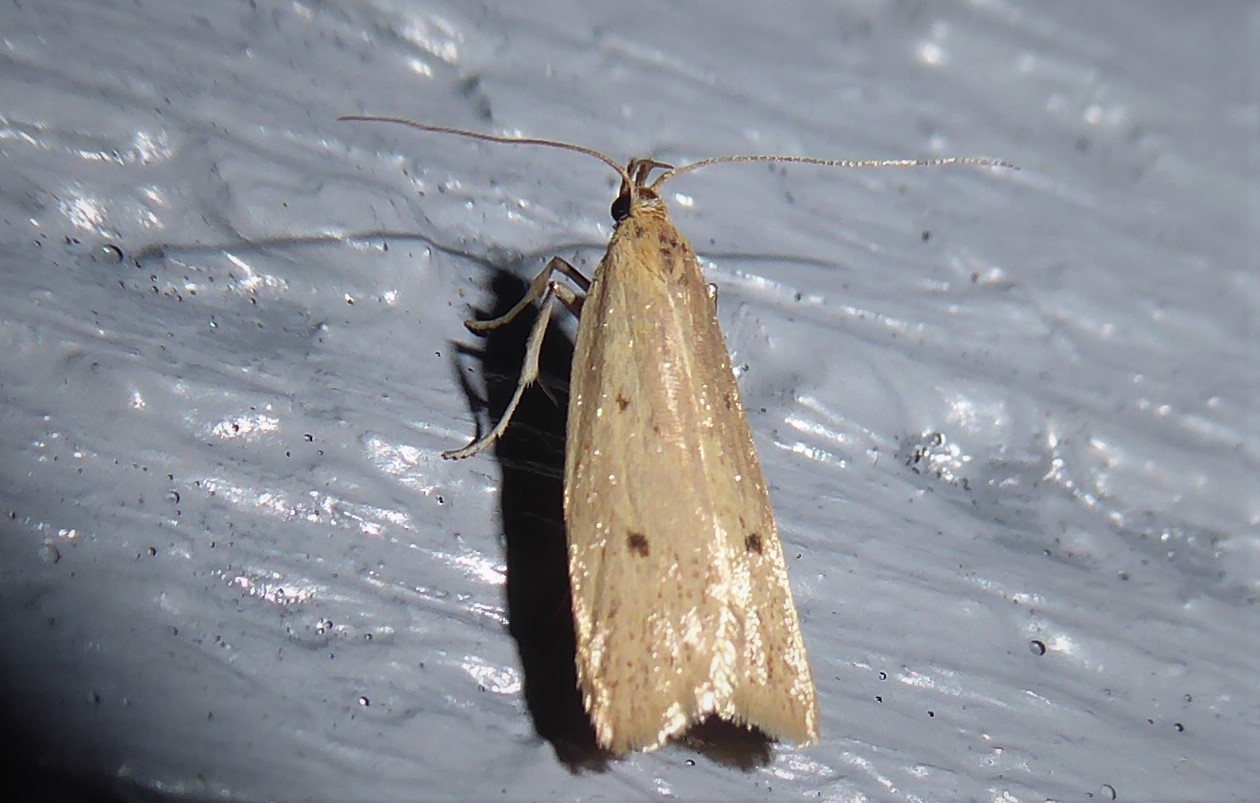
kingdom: Animalia
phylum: Arthropoda
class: Insecta
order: Lepidoptera
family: Oecophoridae
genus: Gymnobathra
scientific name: Gymnobathra sarcoxantha
